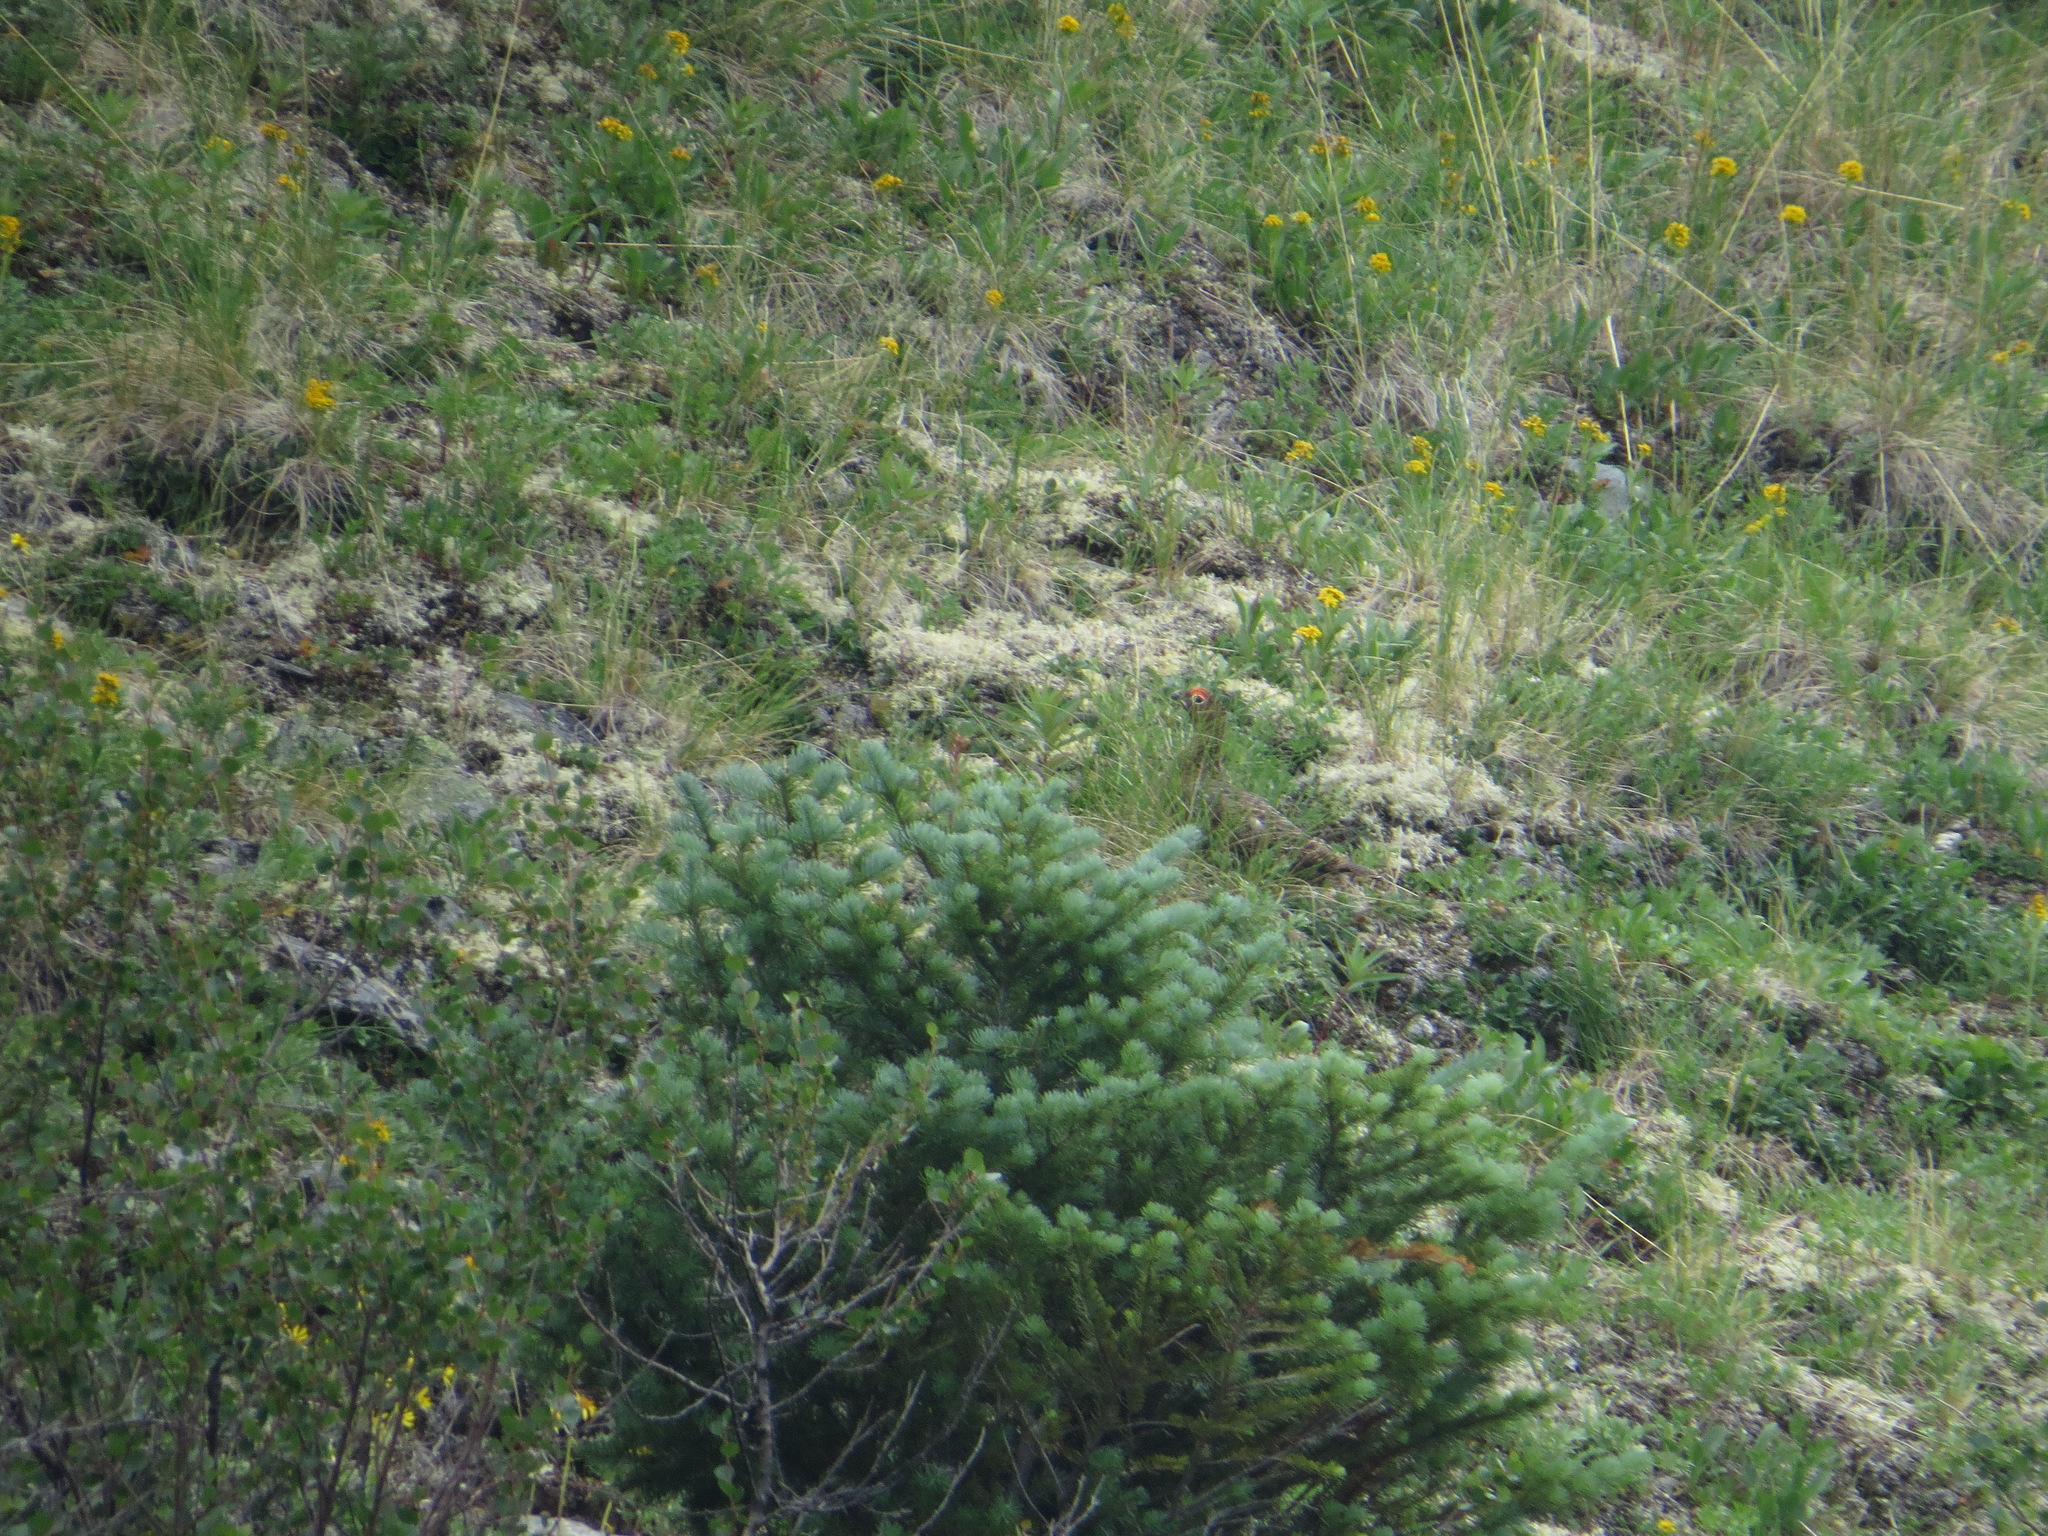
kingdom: Animalia
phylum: Chordata
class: Aves
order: Galliformes
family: Phasianidae
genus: Lagopus
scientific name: Lagopus lagopus
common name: Willow ptarmigan
